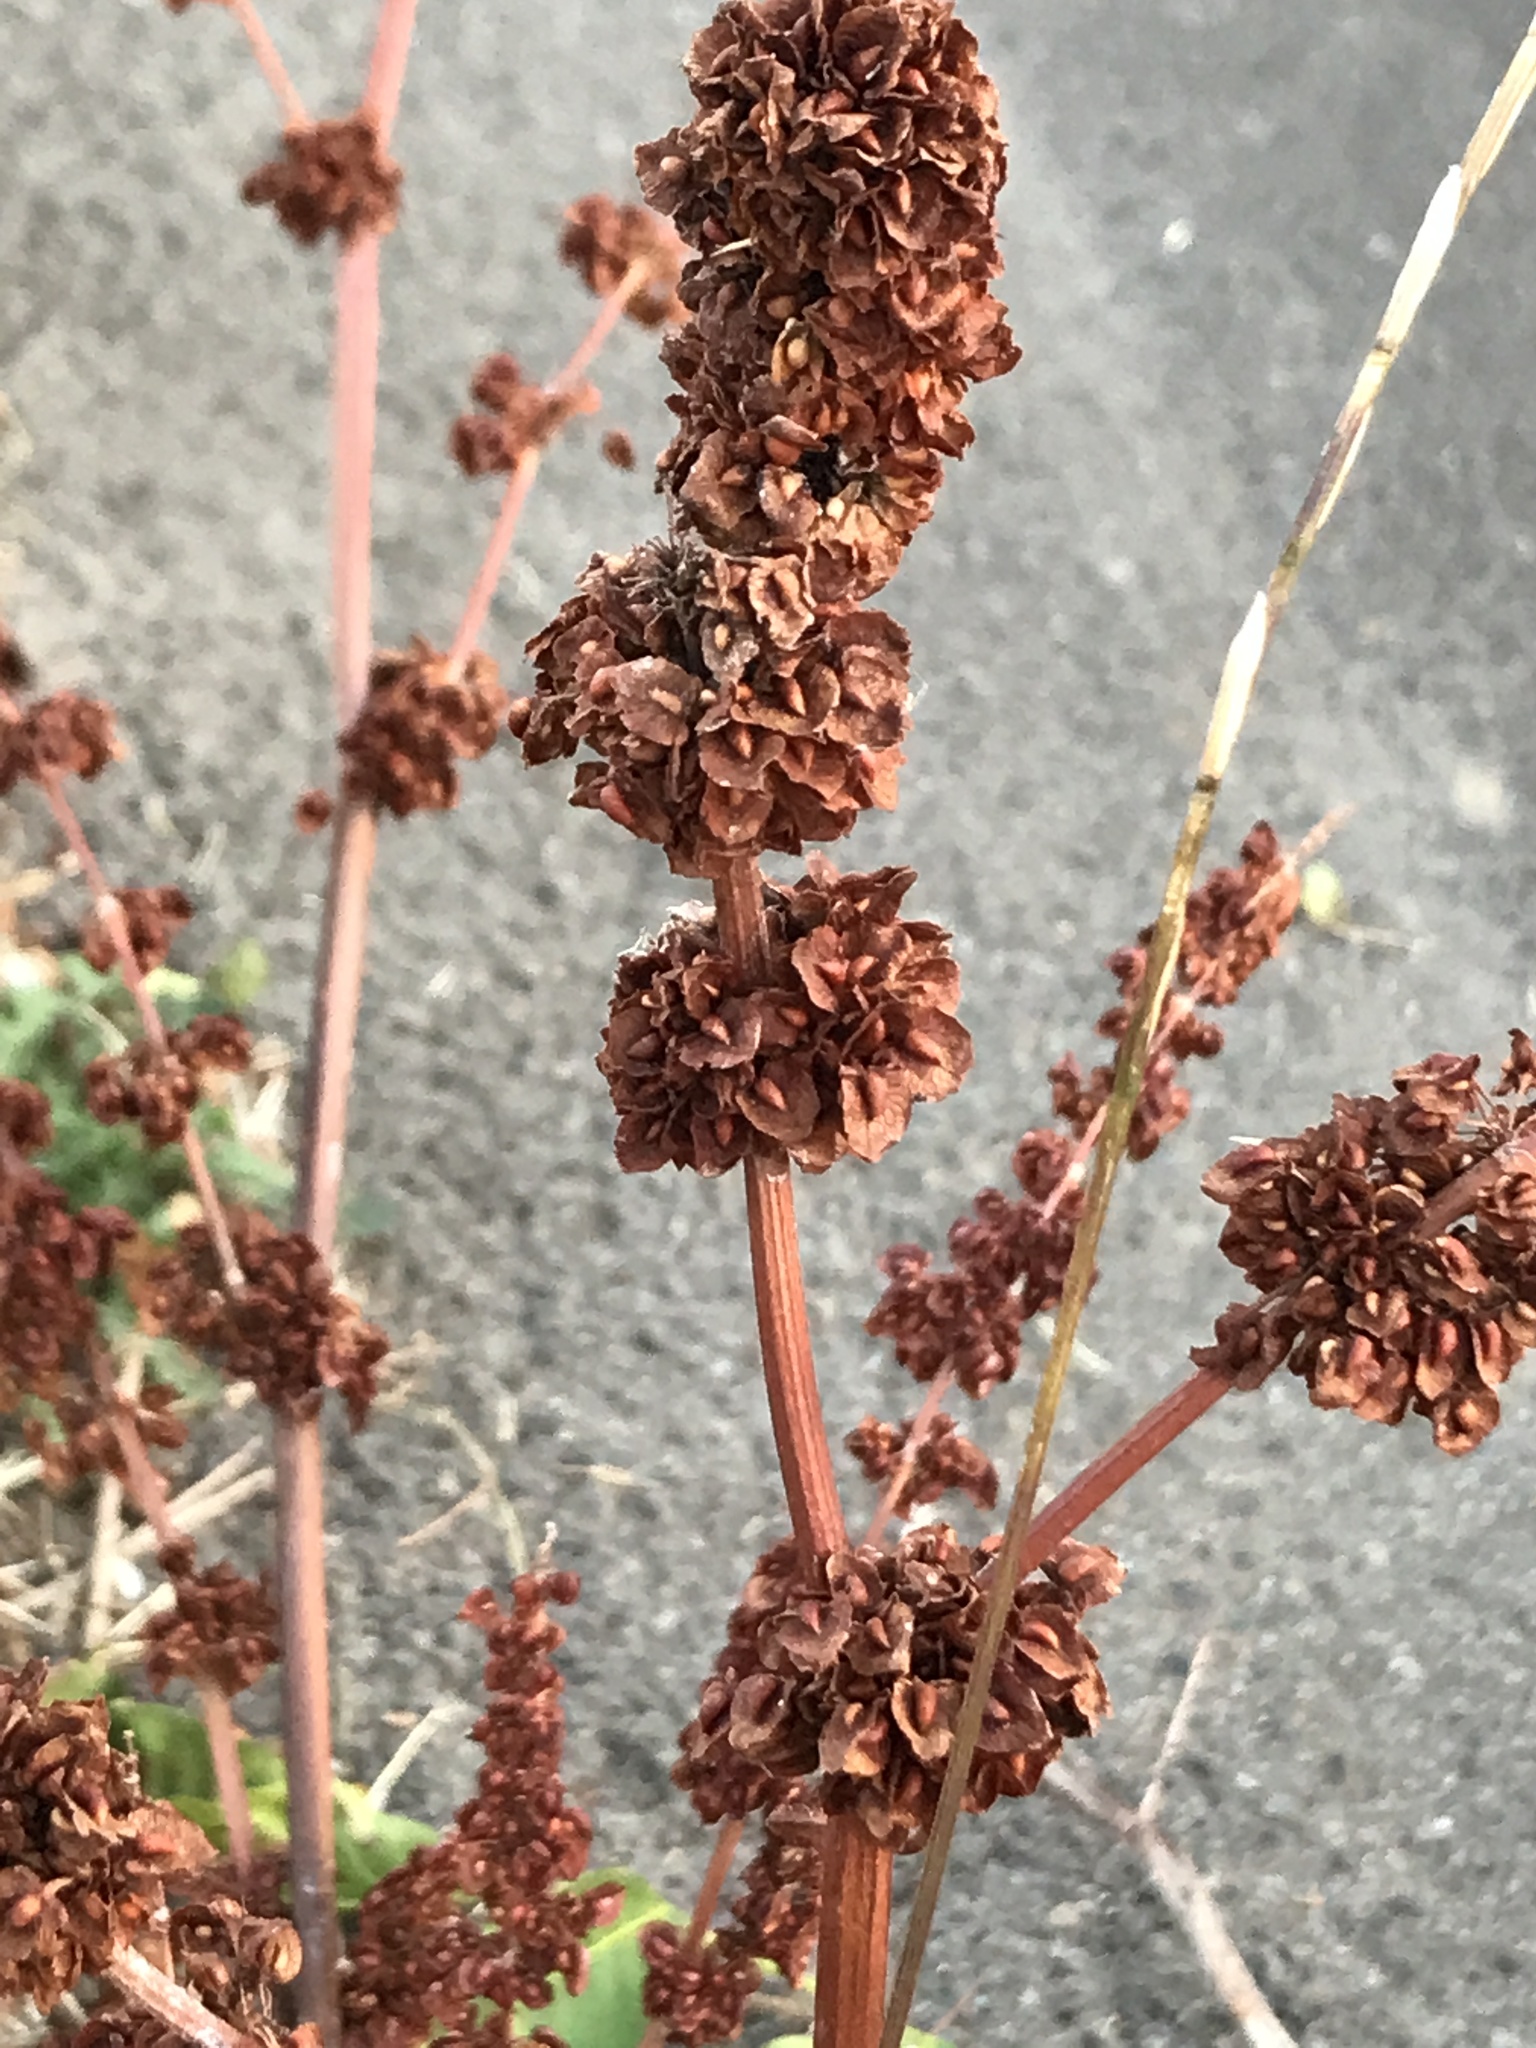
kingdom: Plantae
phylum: Tracheophyta
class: Magnoliopsida
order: Caryophyllales
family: Polygonaceae
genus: Rumex
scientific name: Rumex crispus
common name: Curled dock
